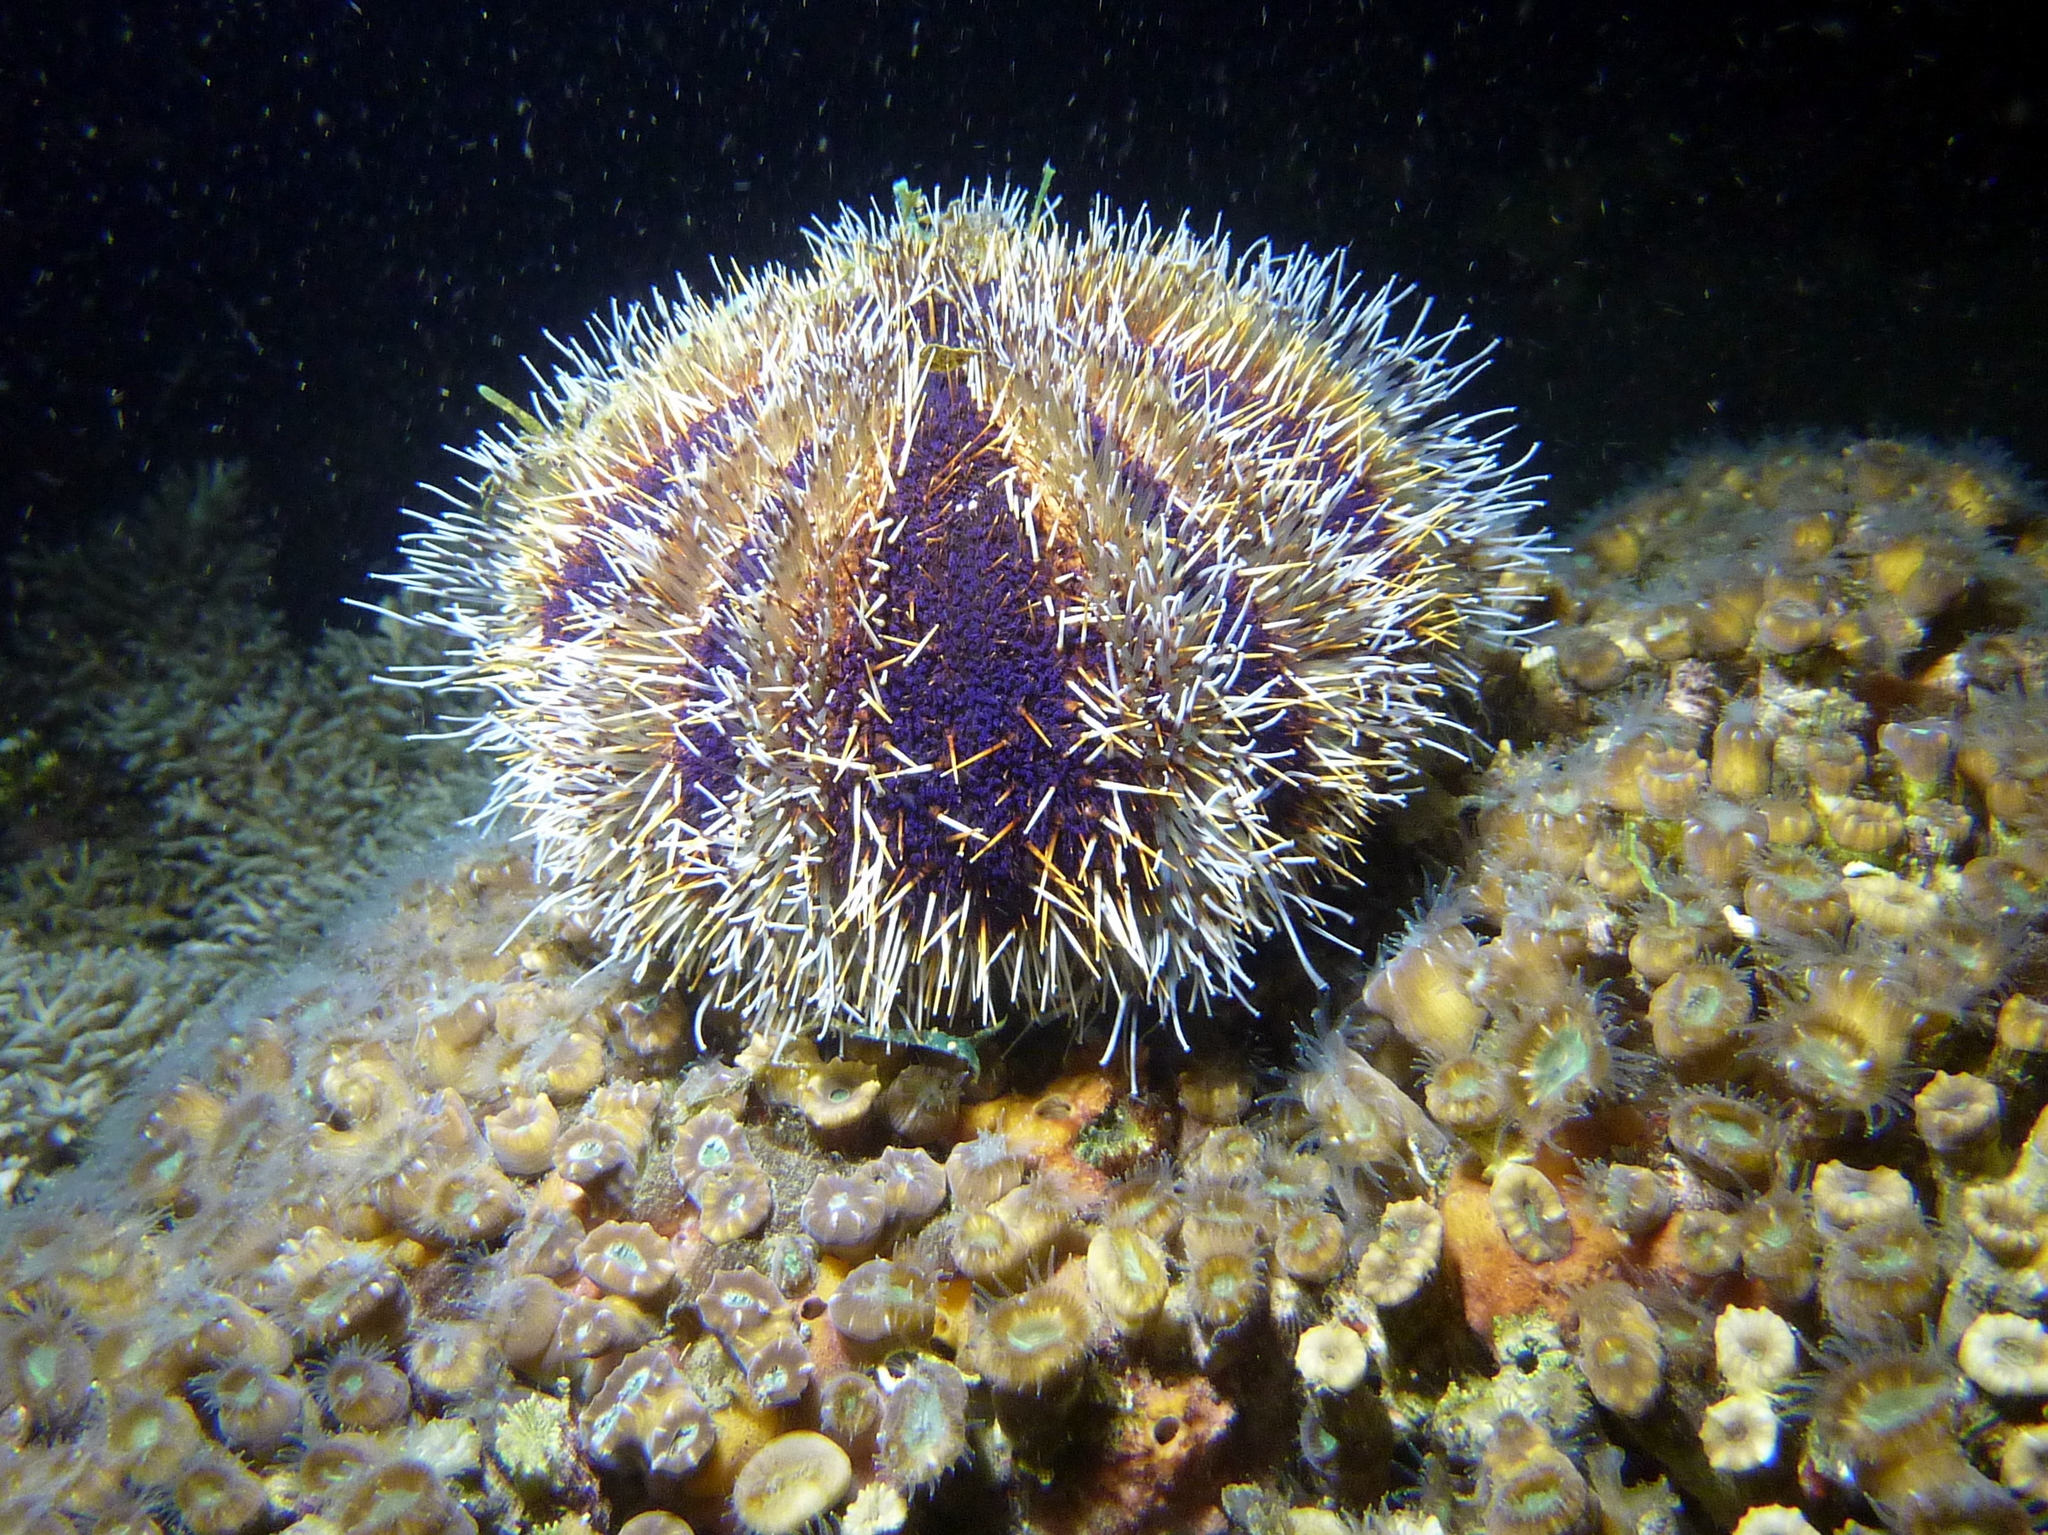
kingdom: Animalia
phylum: Echinodermata
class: Echinoidea
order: Camarodonta
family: Toxopneustidae
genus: Tripneustes
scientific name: Tripneustes gratilla
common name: Bischofsmützenseeigel
